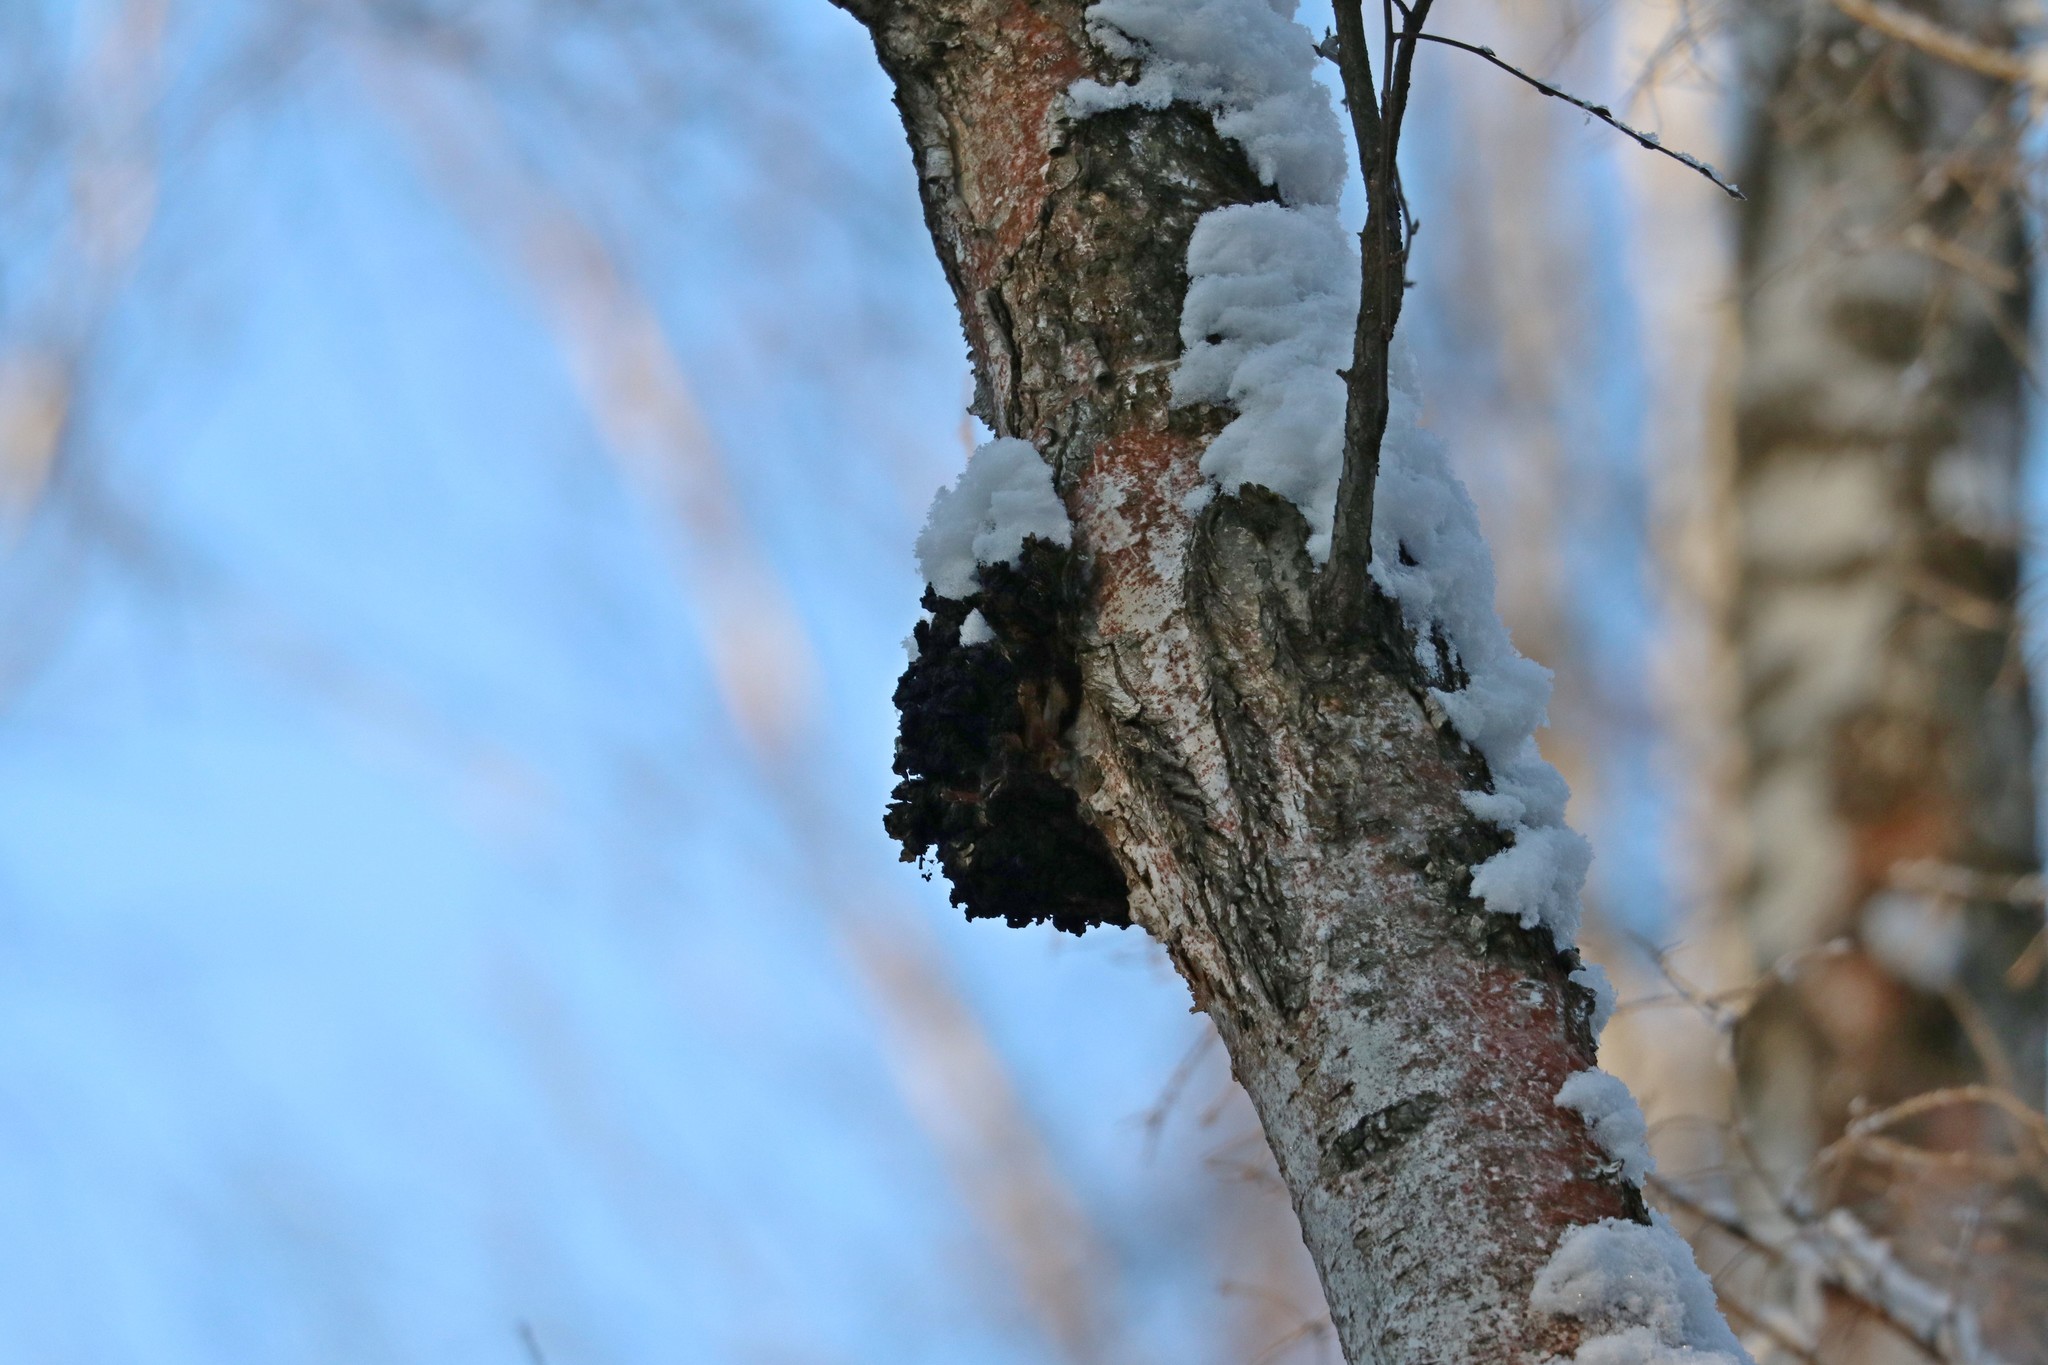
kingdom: Fungi
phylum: Basidiomycota
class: Agaricomycetes
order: Hymenochaetales
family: Hymenochaetaceae
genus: Inonotus
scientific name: Inonotus obliquus
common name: Chaga
